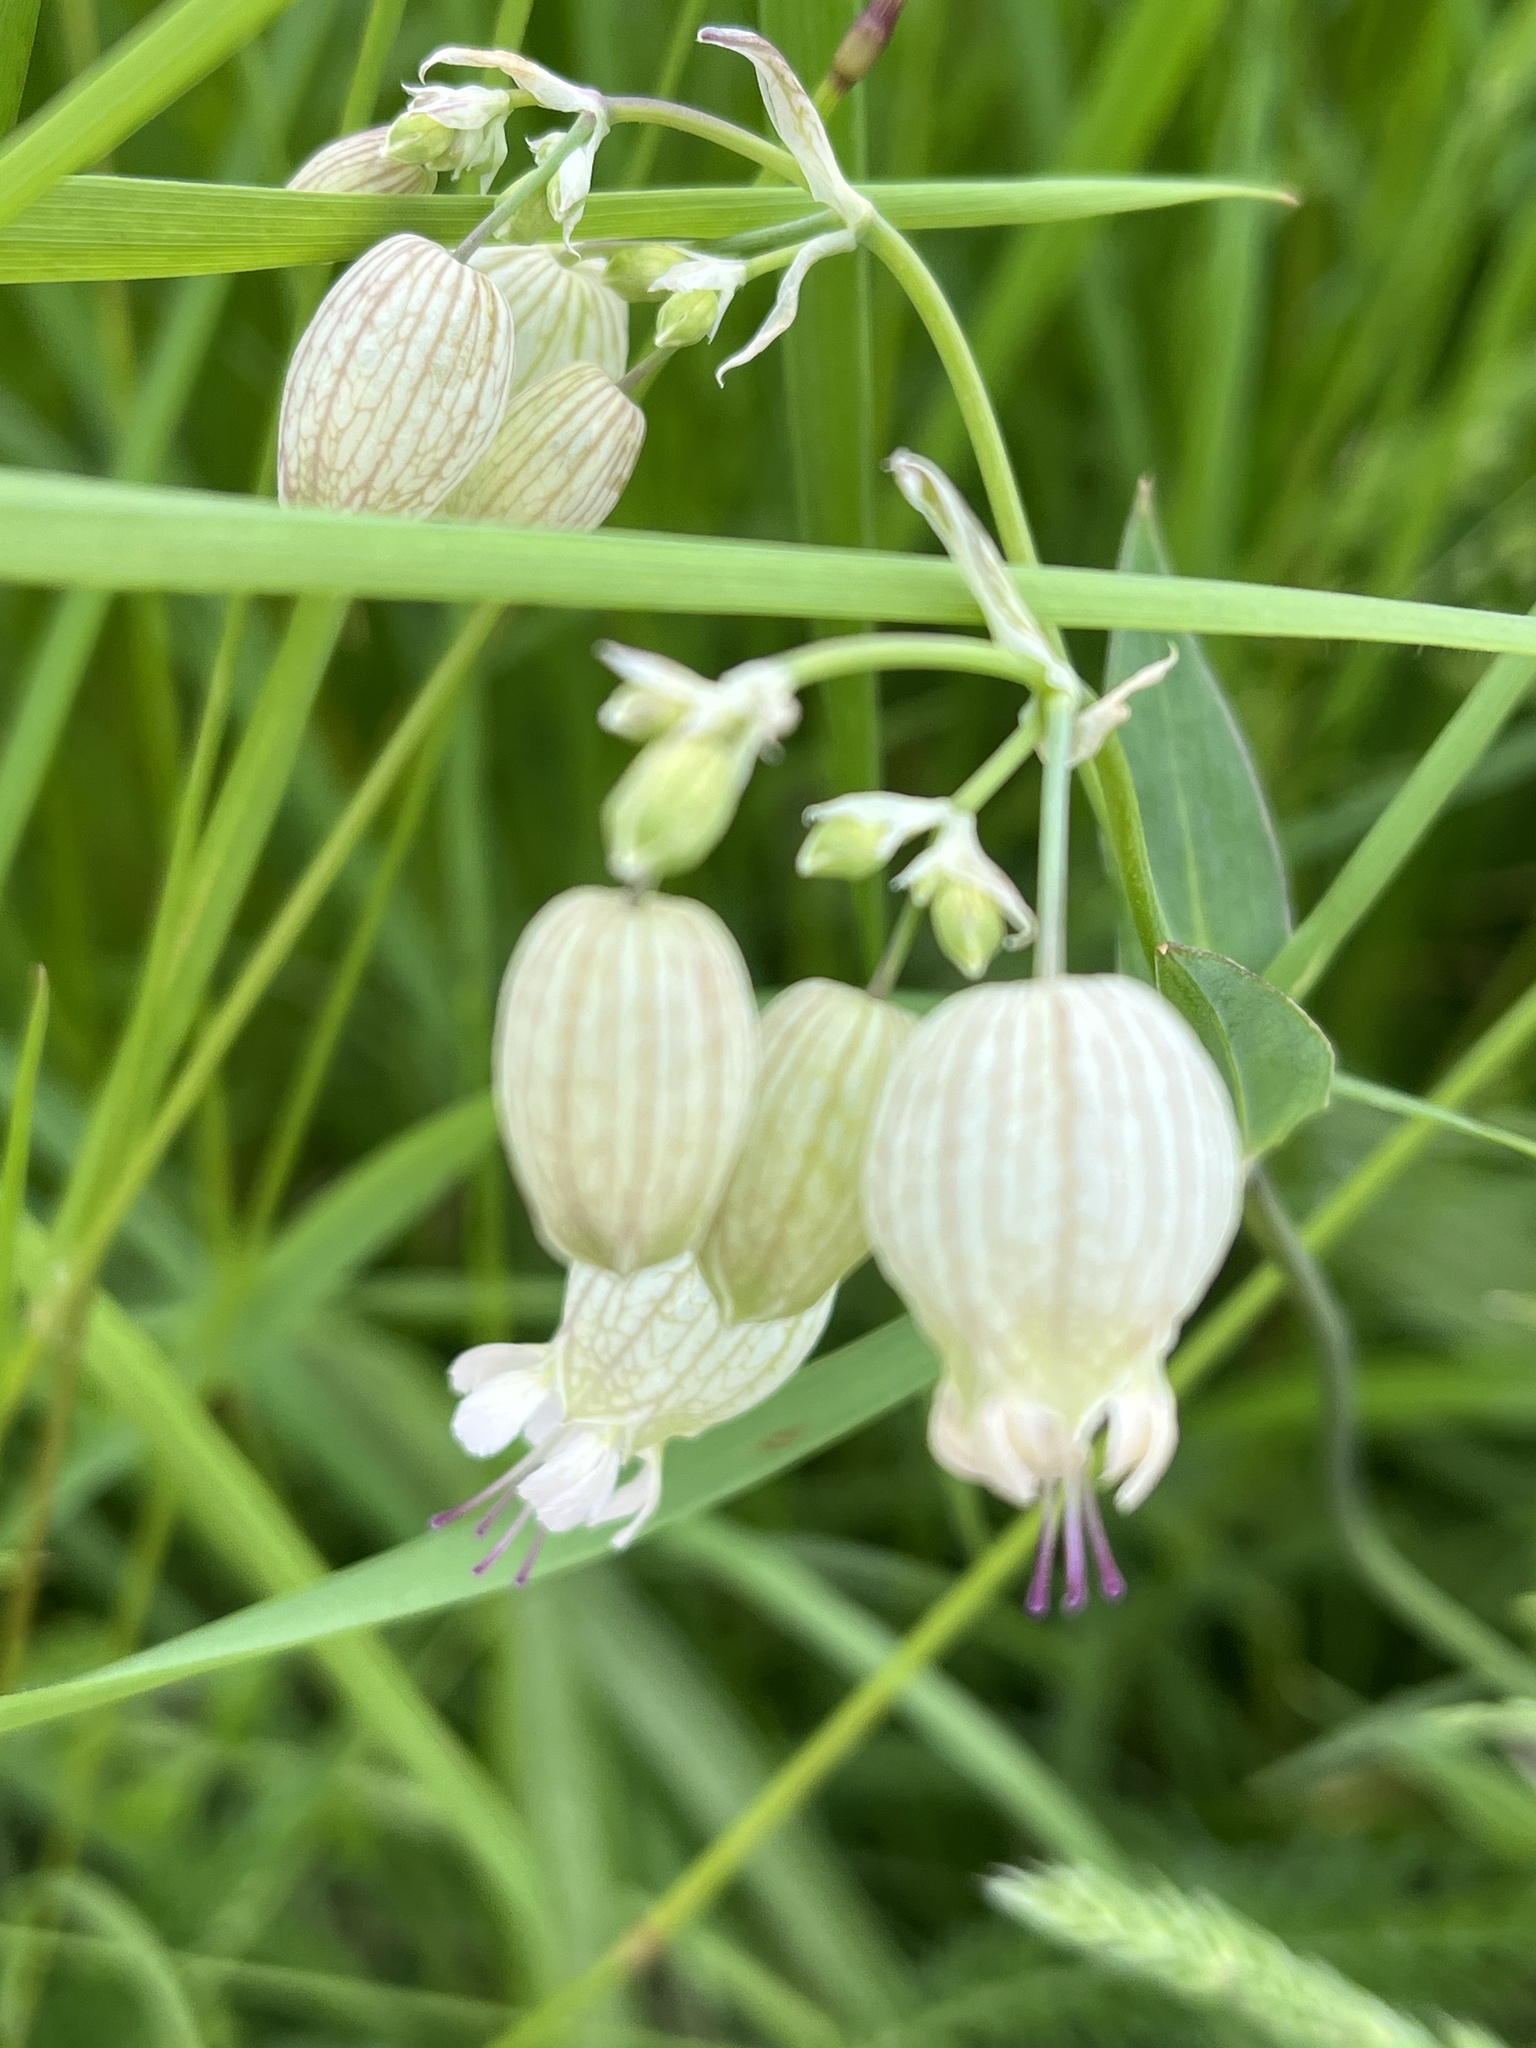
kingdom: Plantae
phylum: Tracheophyta
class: Magnoliopsida
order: Caryophyllales
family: Caryophyllaceae
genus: Silene
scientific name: Silene vulgaris
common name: Bladder campion
